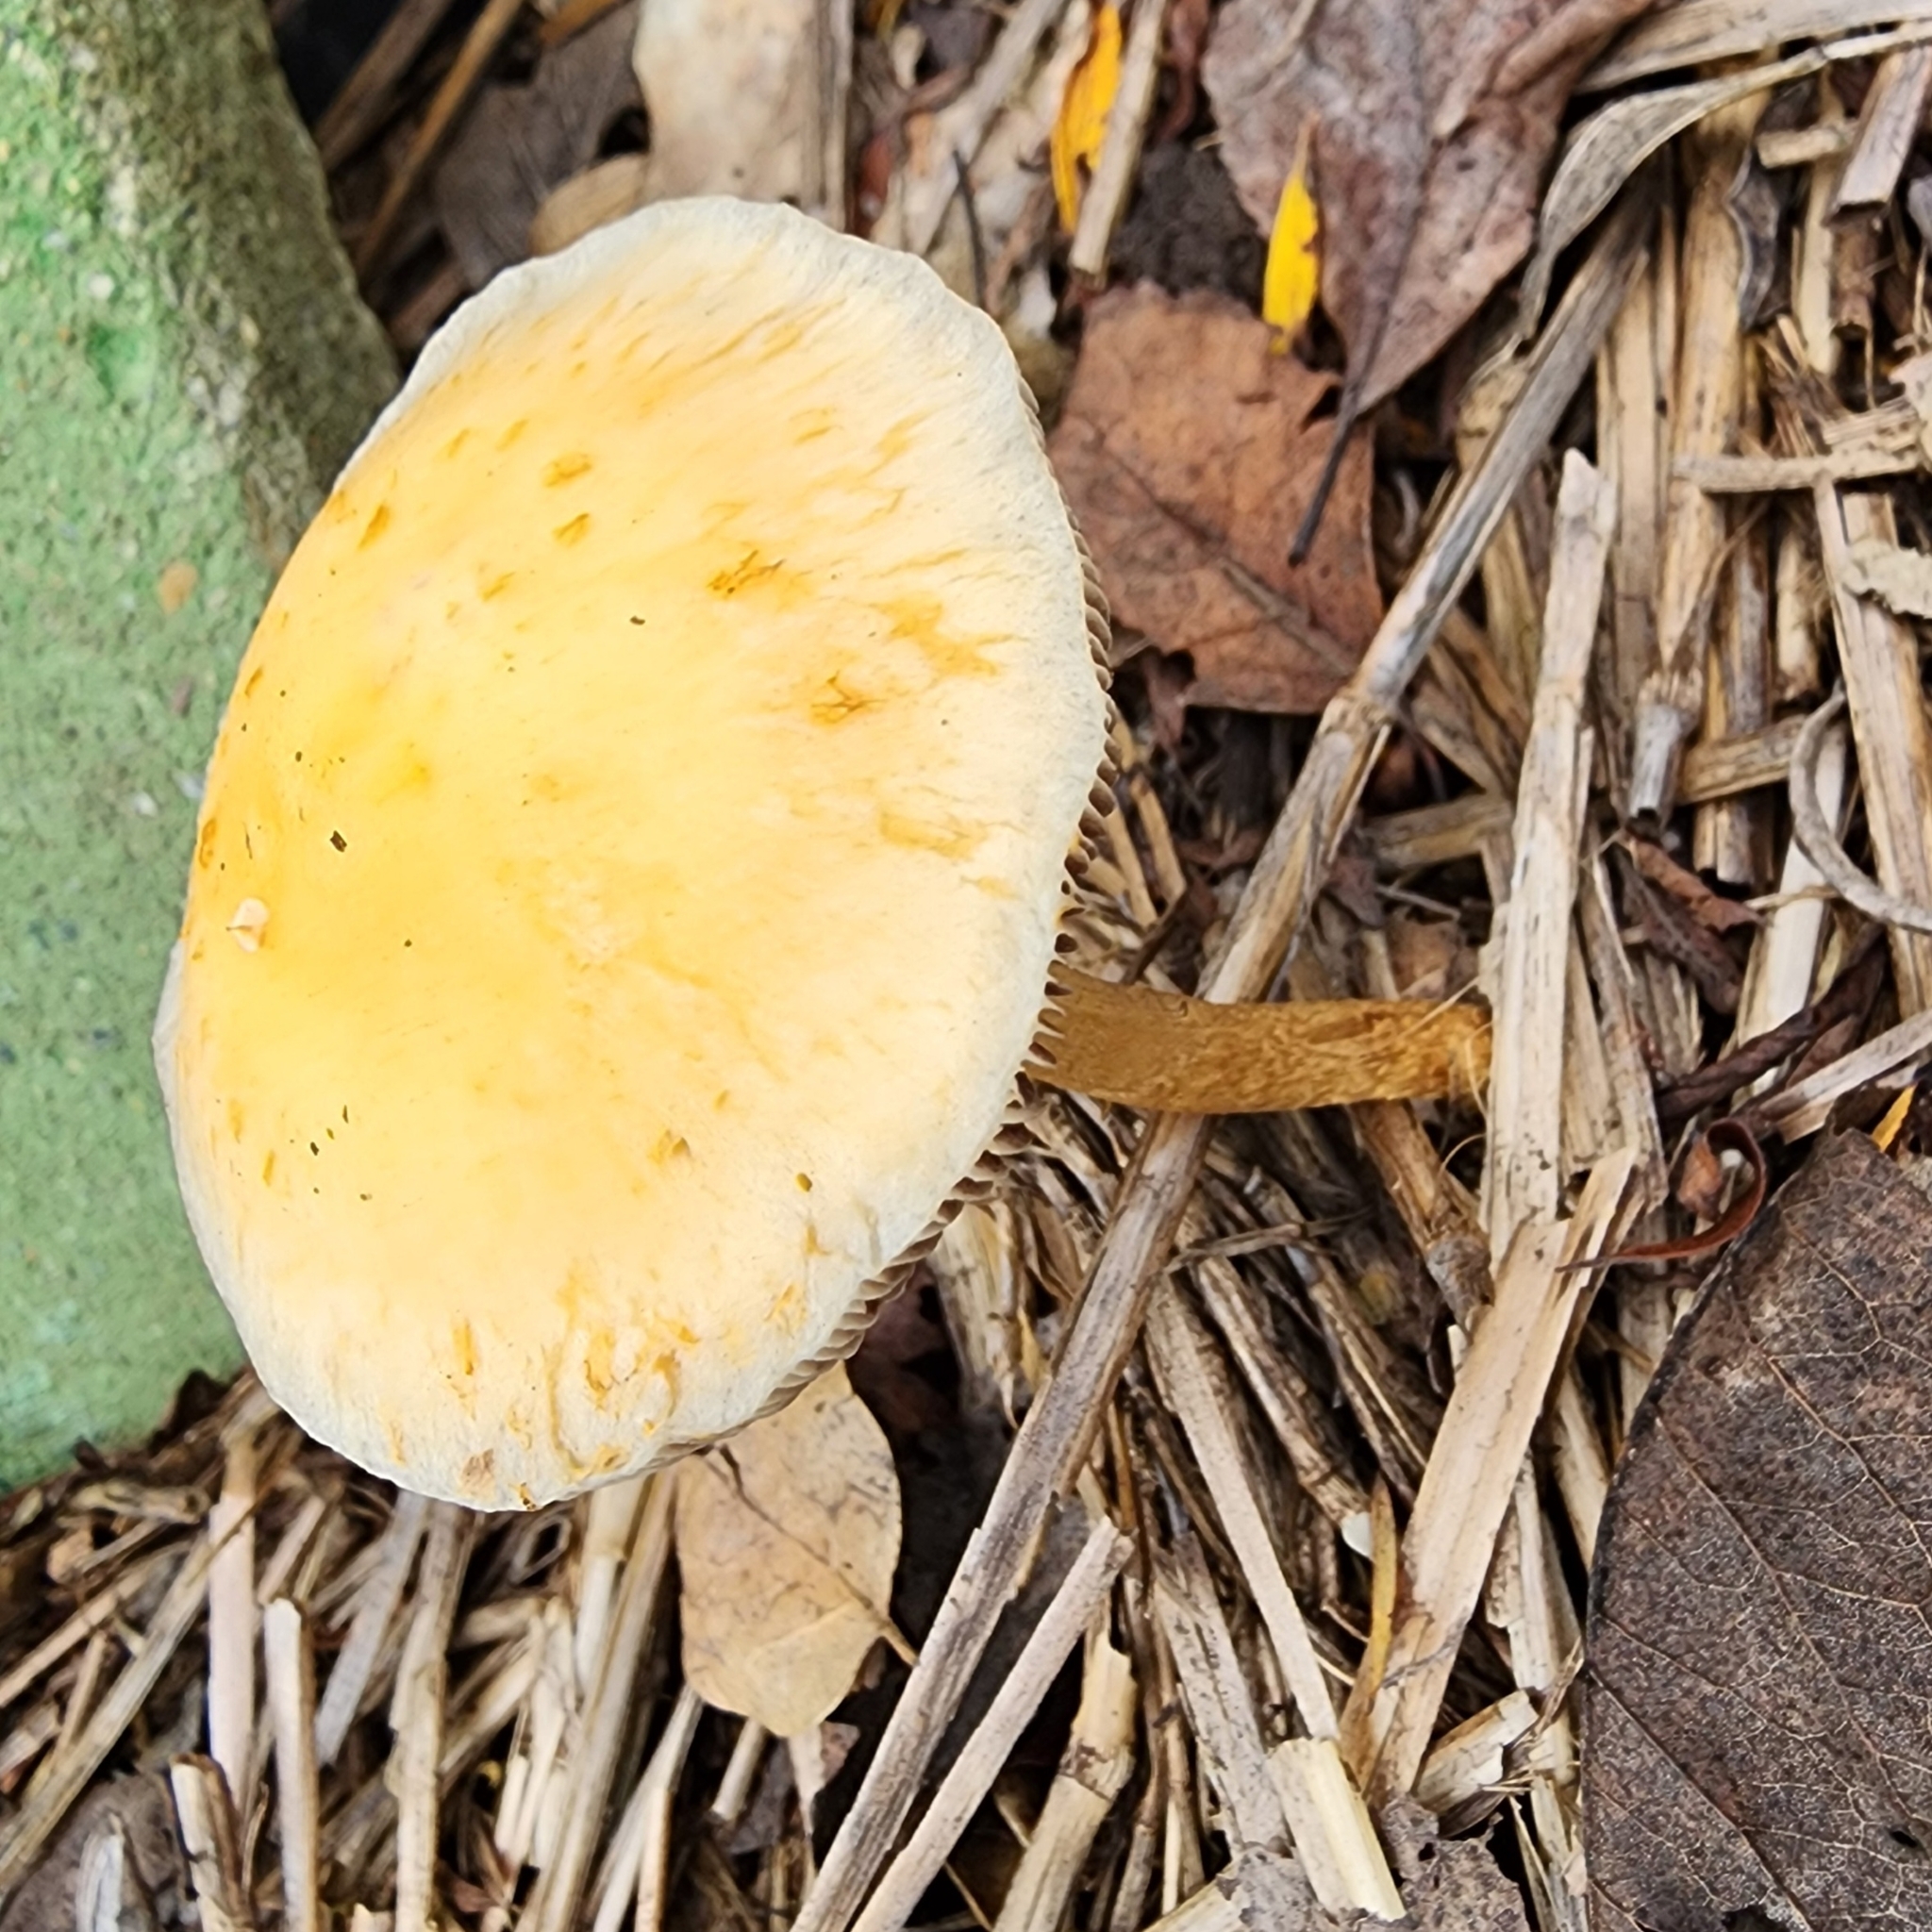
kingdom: Fungi
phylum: Basidiomycota
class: Agaricomycetes
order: Agaricales
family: Strophariaceae
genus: Leratiomyces
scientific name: Leratiomyces percevalii
